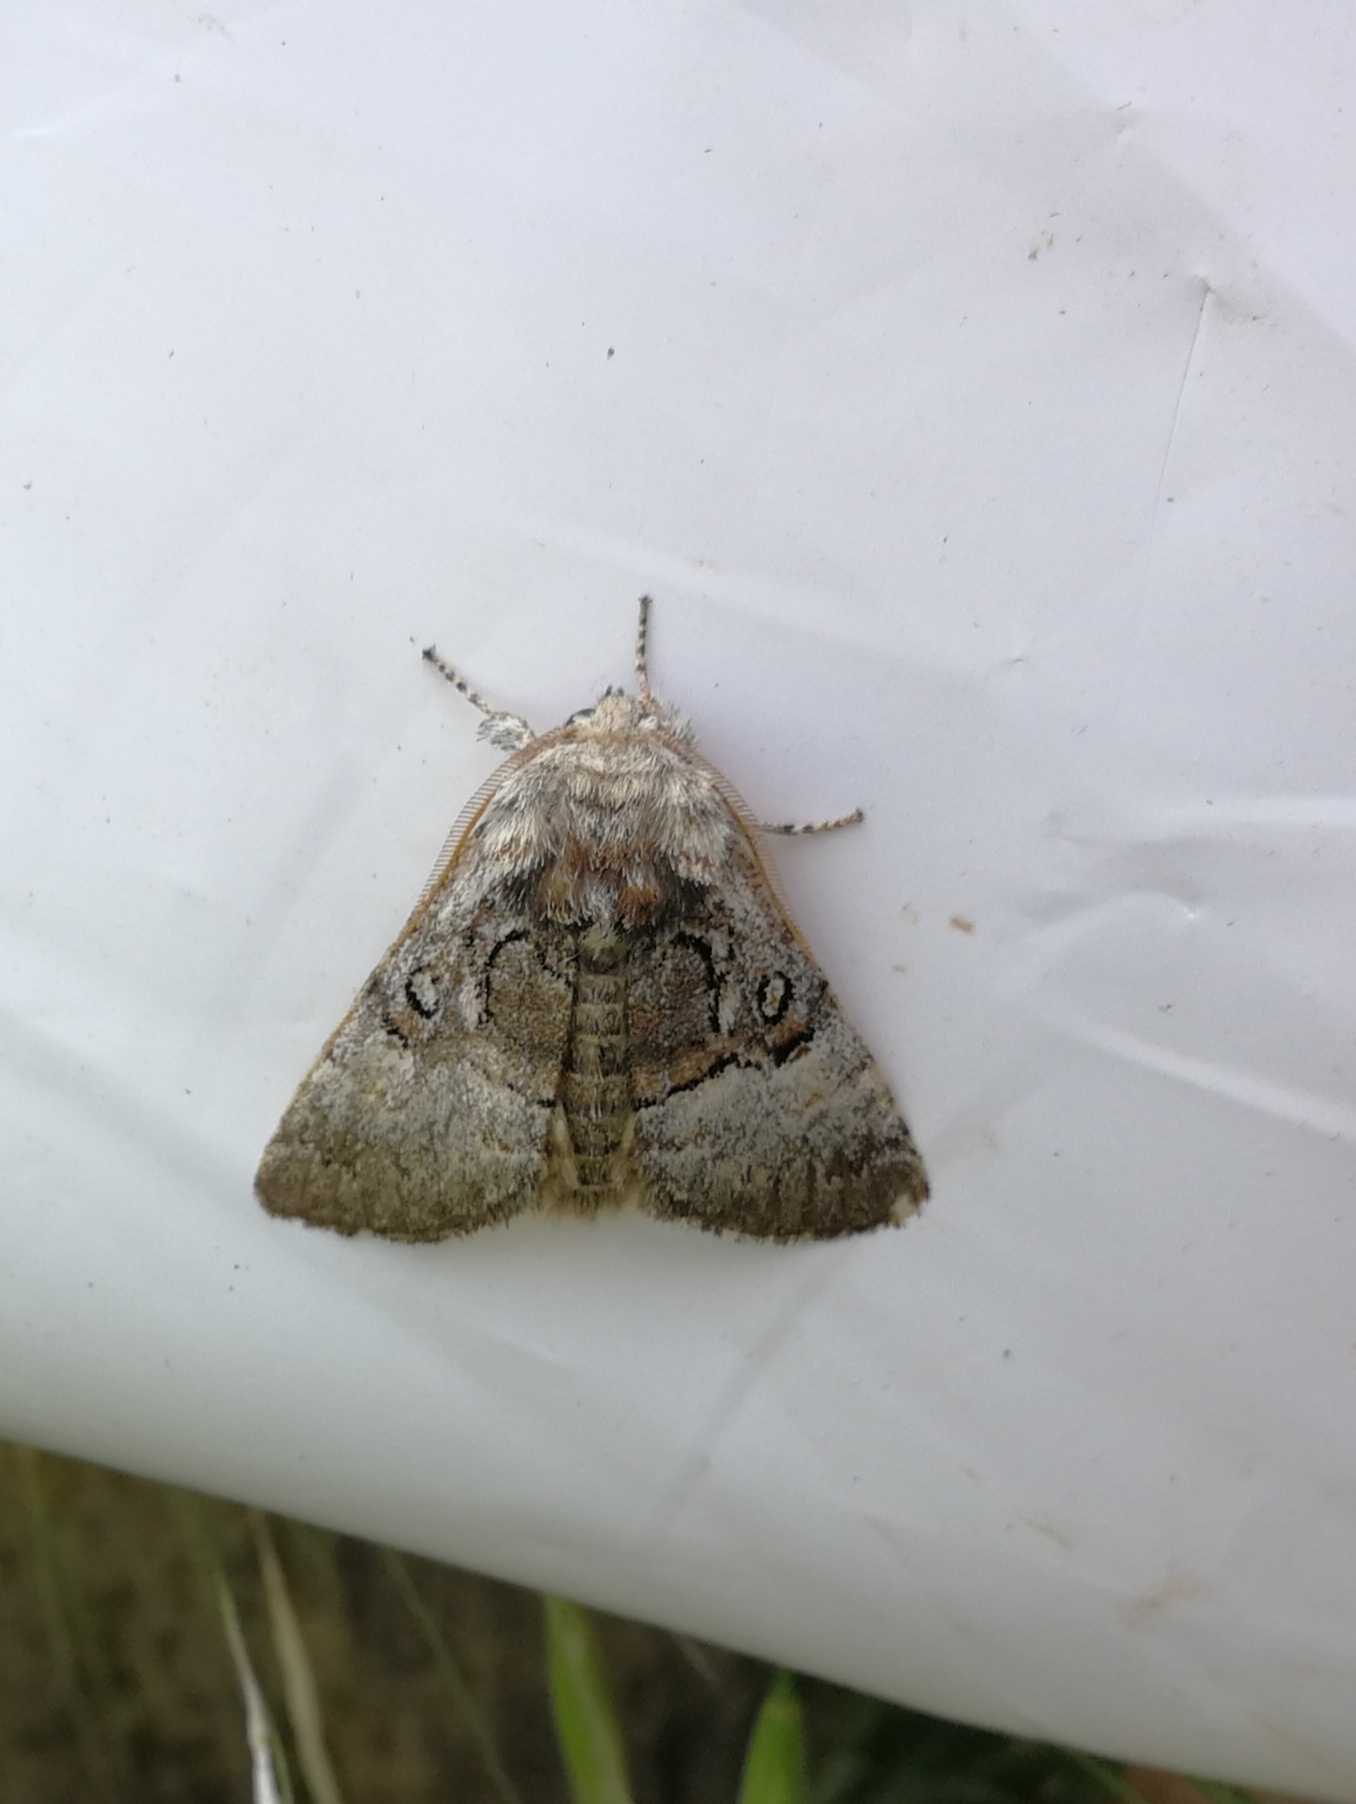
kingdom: Animalia
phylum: Arthropoda
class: Insecta
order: Lepidoptera
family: Noctuidae
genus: Colocasia
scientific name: Colocasia coryli
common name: Nut-tree tussock
